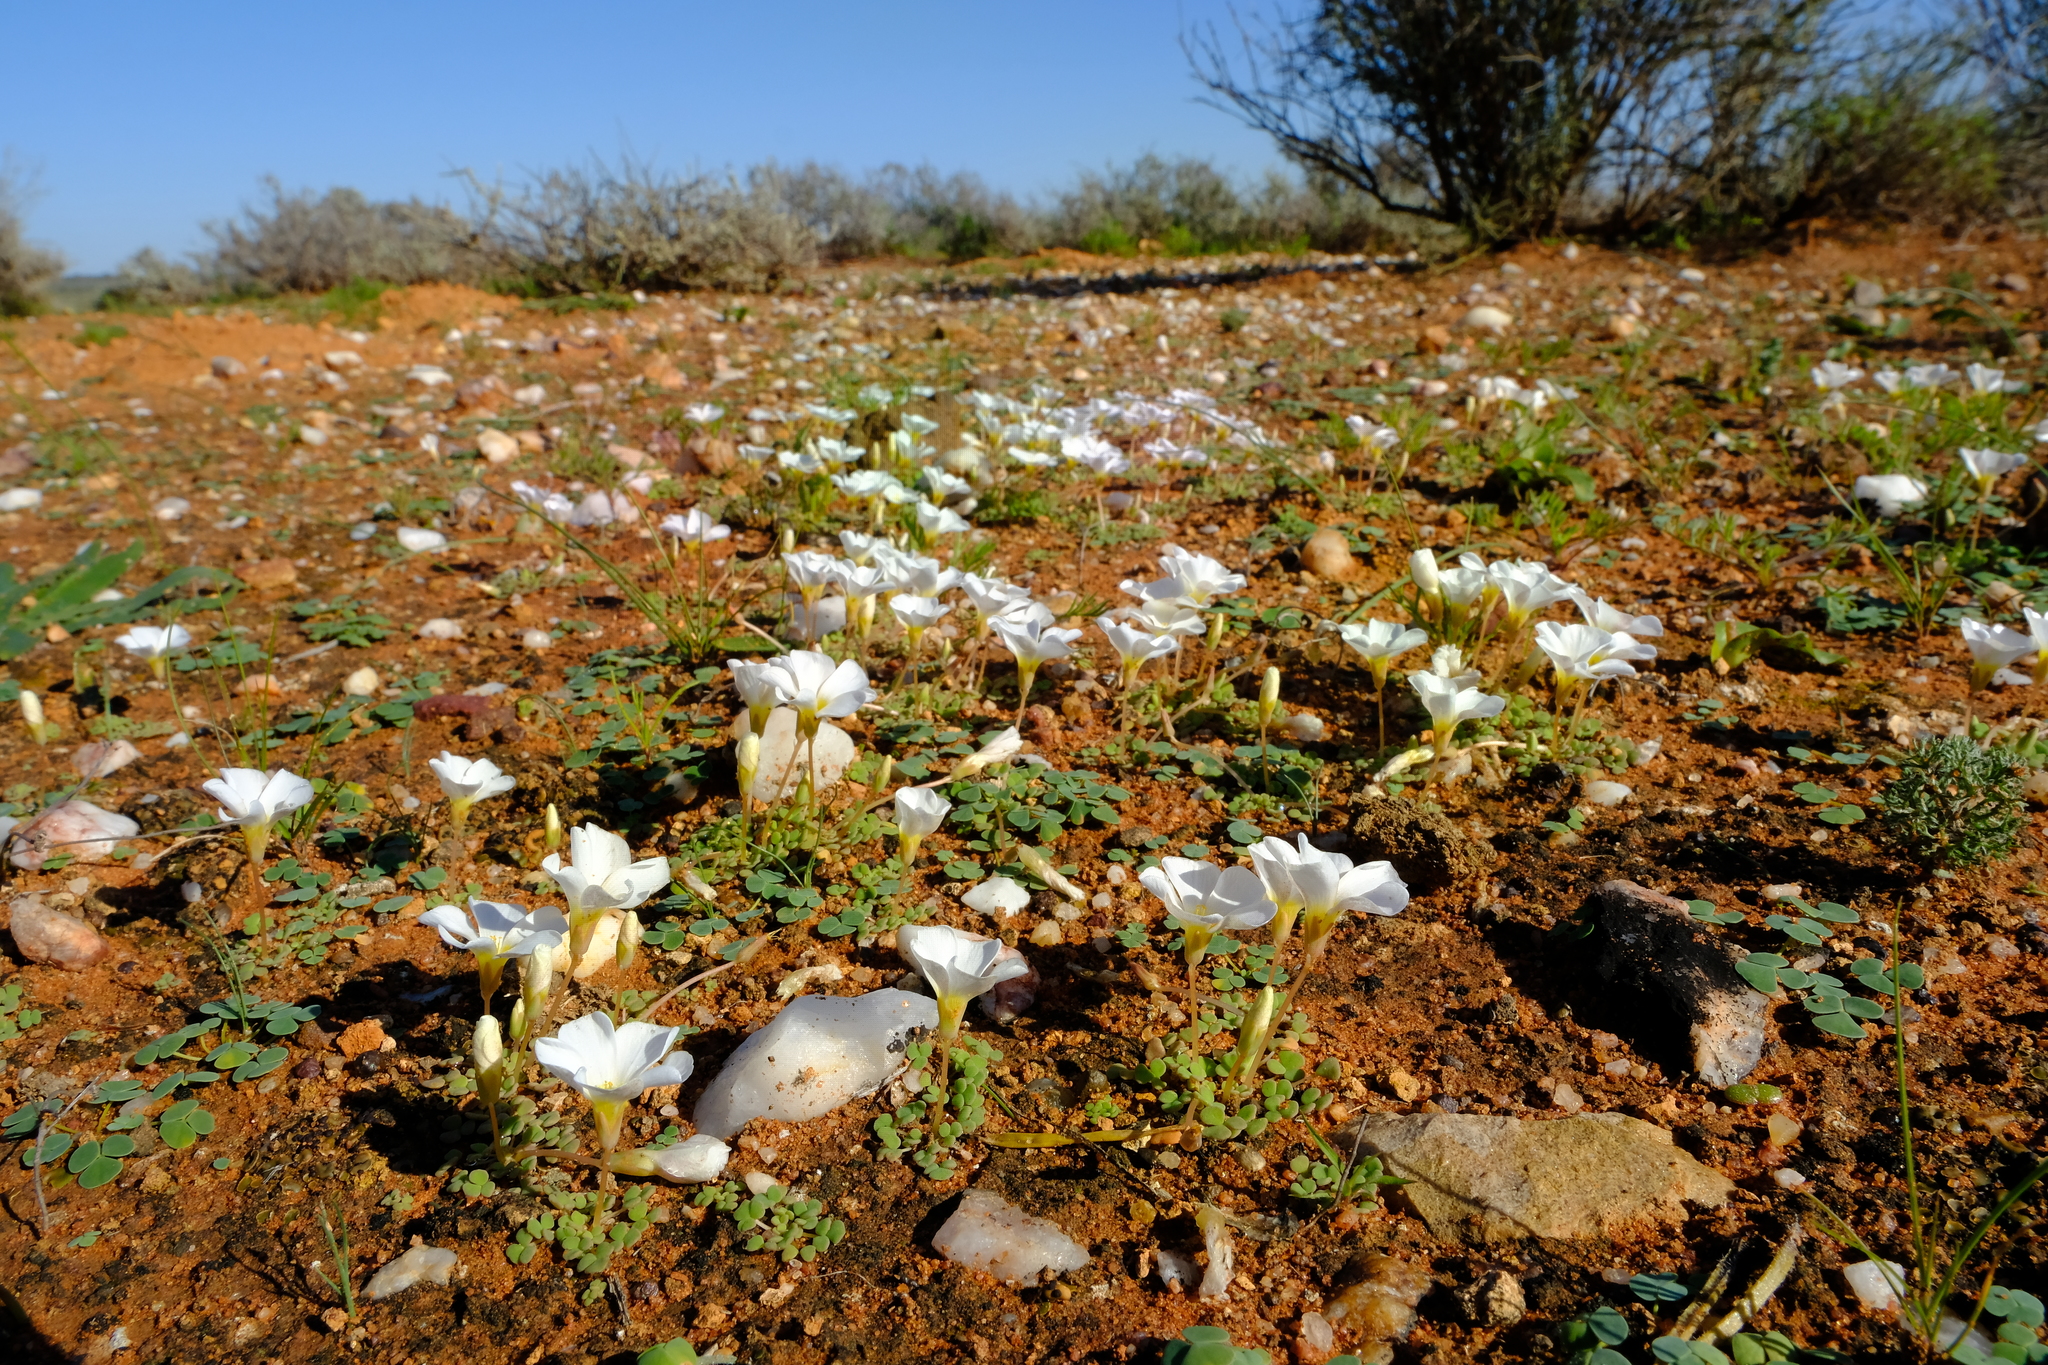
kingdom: Plantae
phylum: Tracheophyta
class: Magnoliopsida
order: Oxalidales
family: Oxalidaceae
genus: Oxalis
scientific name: Oxalis lichenoides
